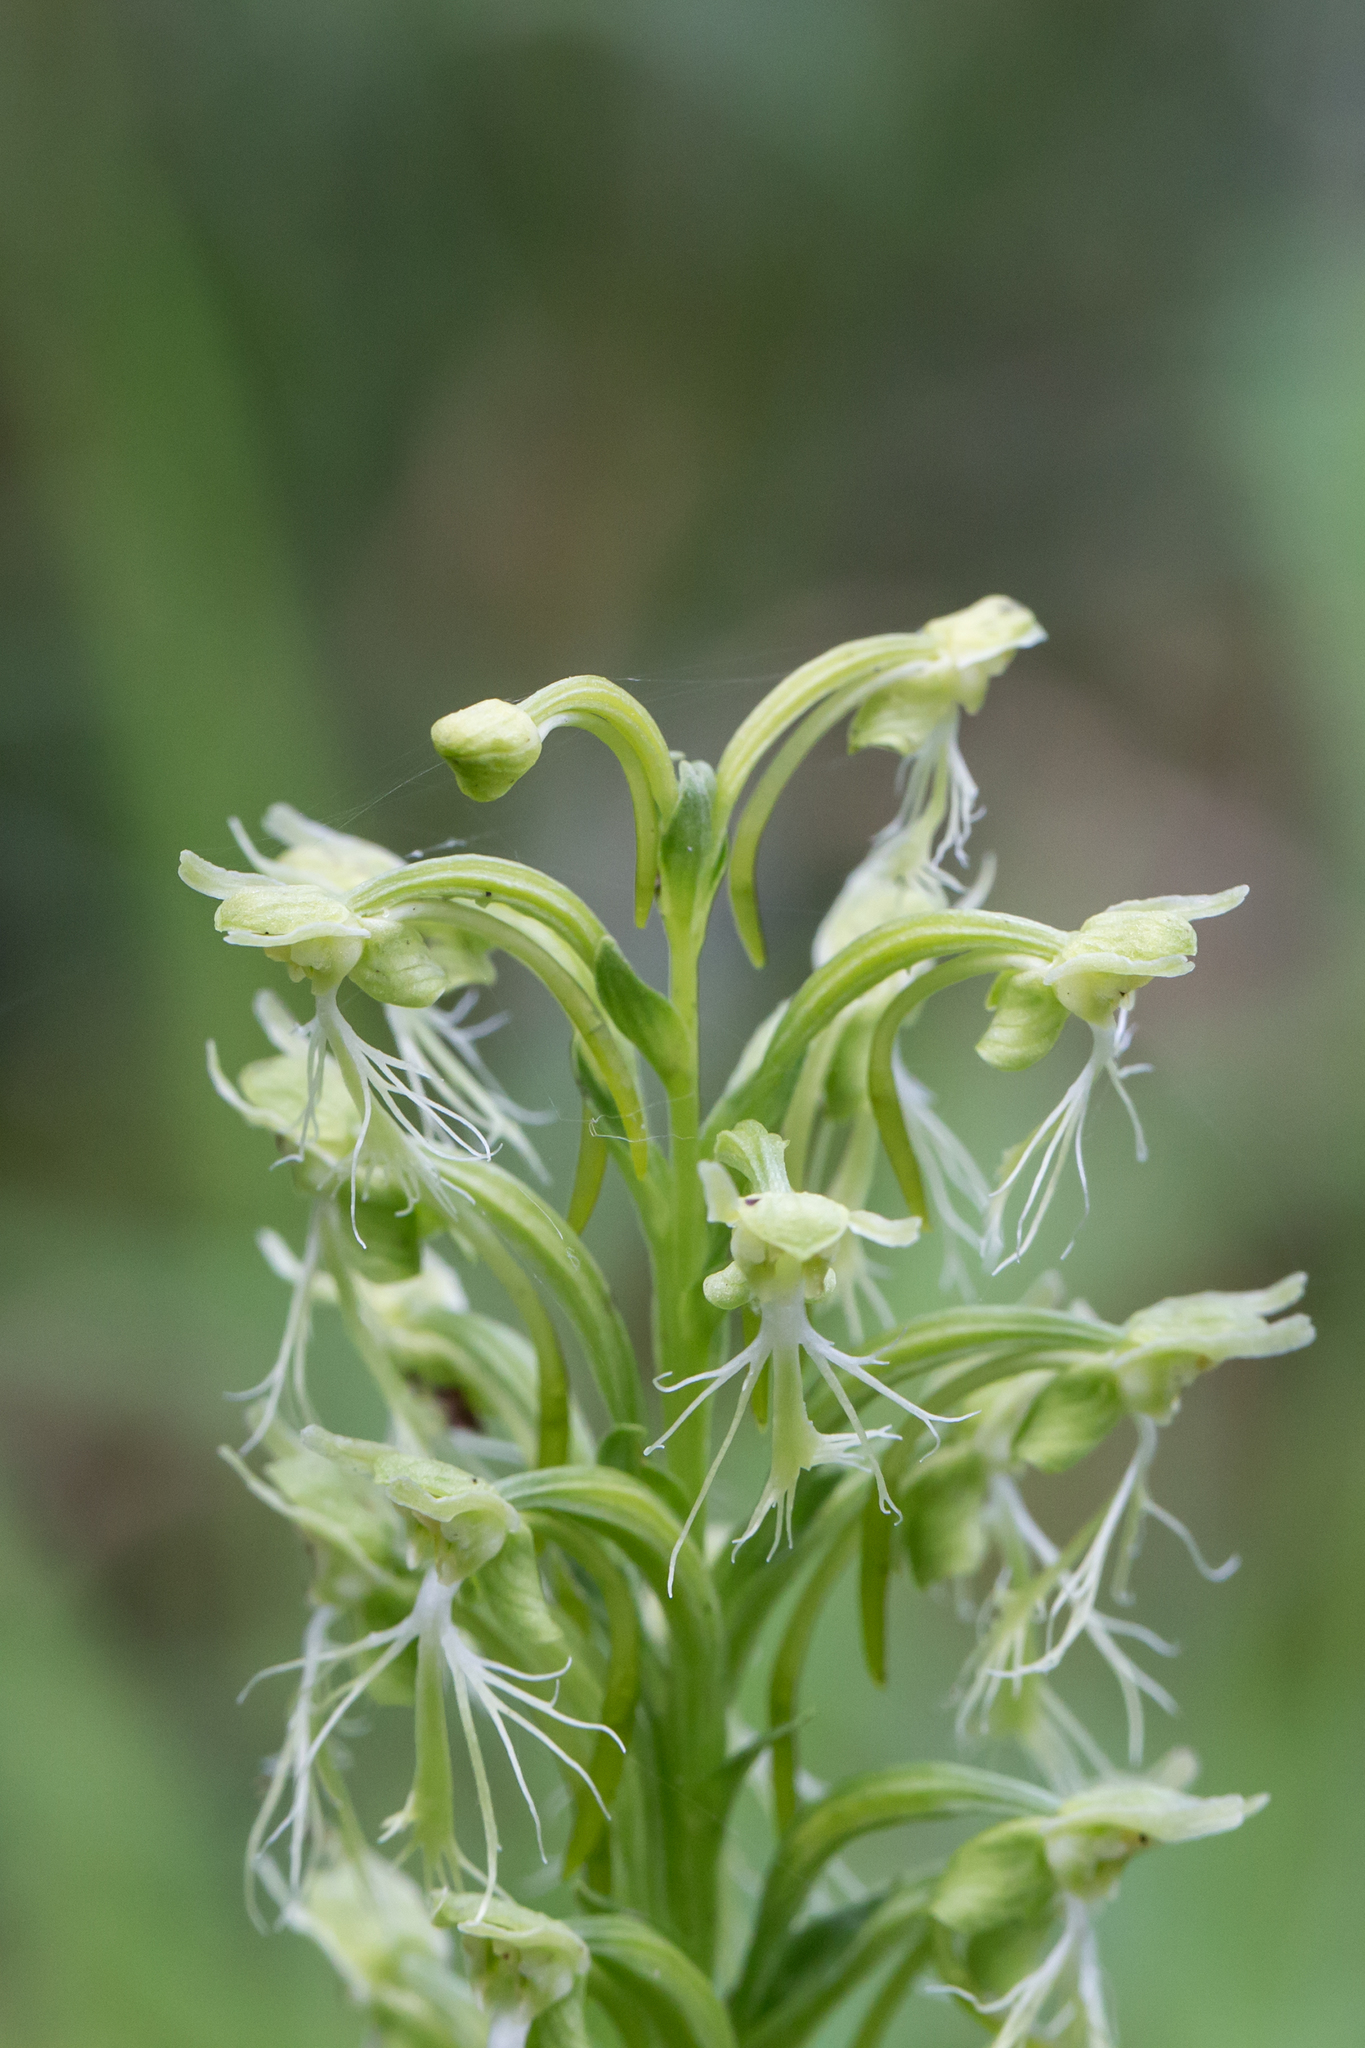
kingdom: Plantae
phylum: Tracheophyta
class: Liliopsida
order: Asparagales
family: Orchidaceae
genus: Platanthera
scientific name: Platanthera lacera
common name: Green fringed orchid
